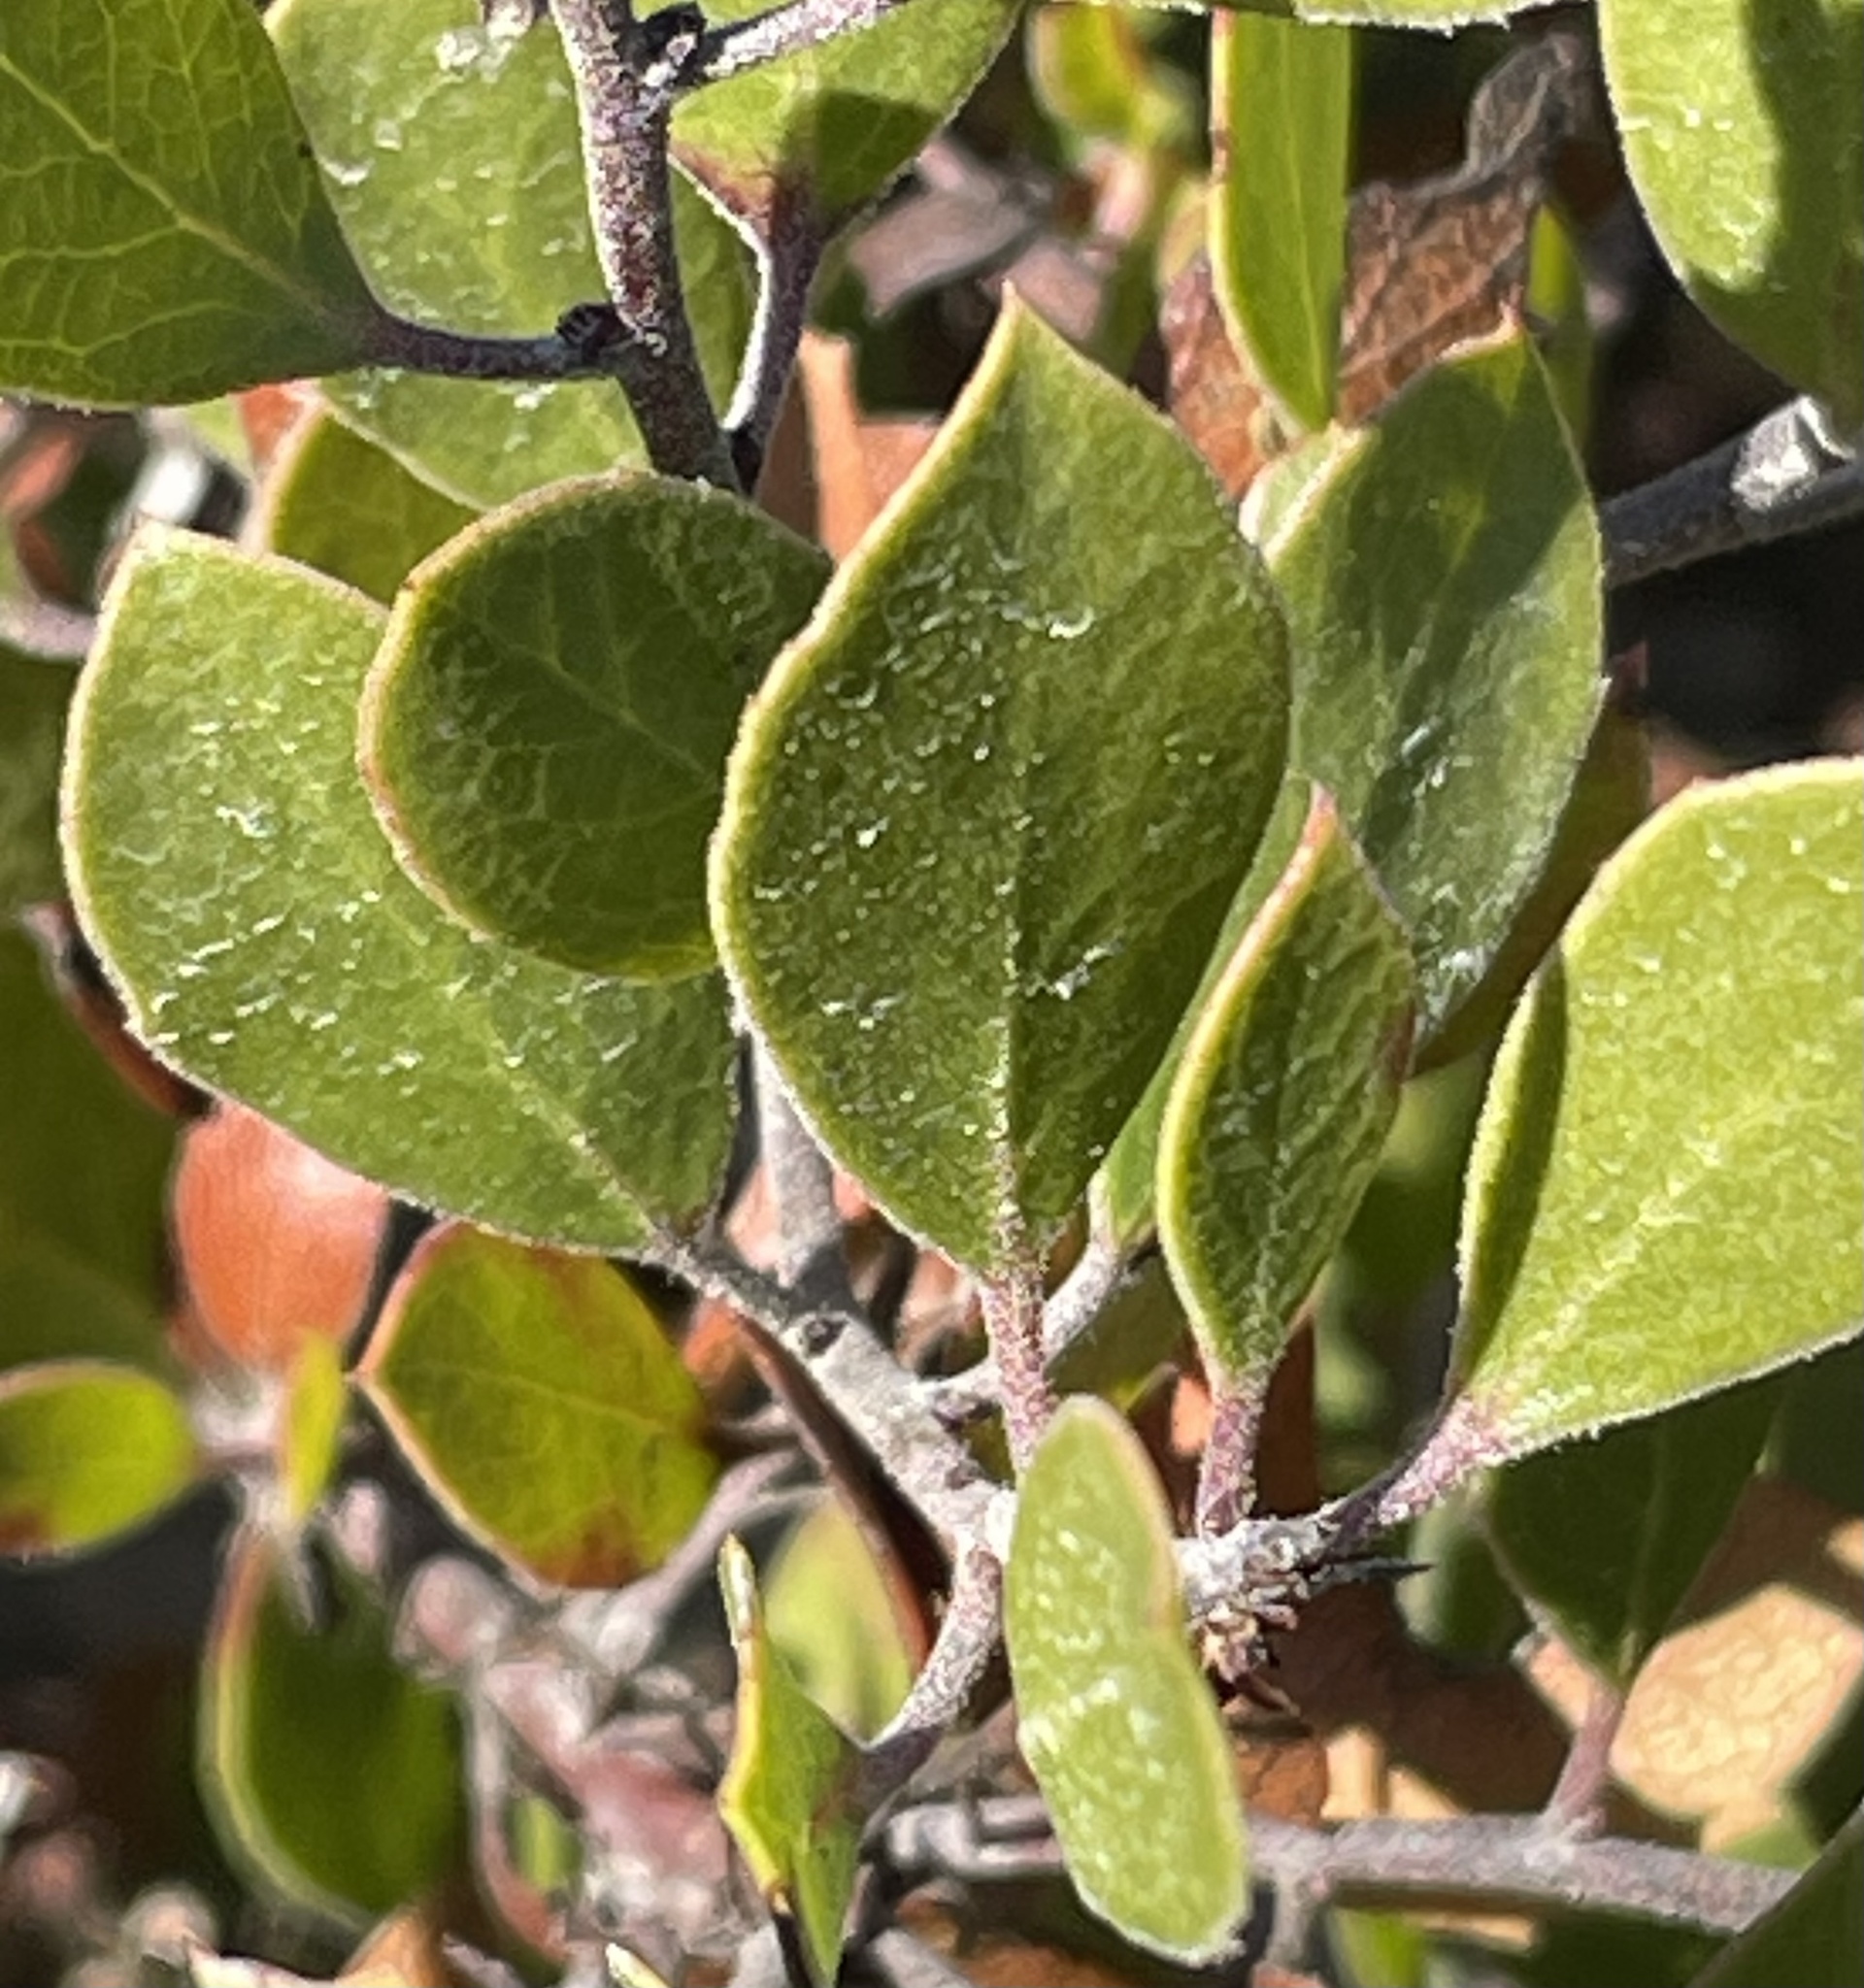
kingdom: Plantae
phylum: Tracheophyta
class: Magnoliopsida
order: Ericales
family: Ericaceae
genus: Arctostaphylos
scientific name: Arctostaphylos hookeri
